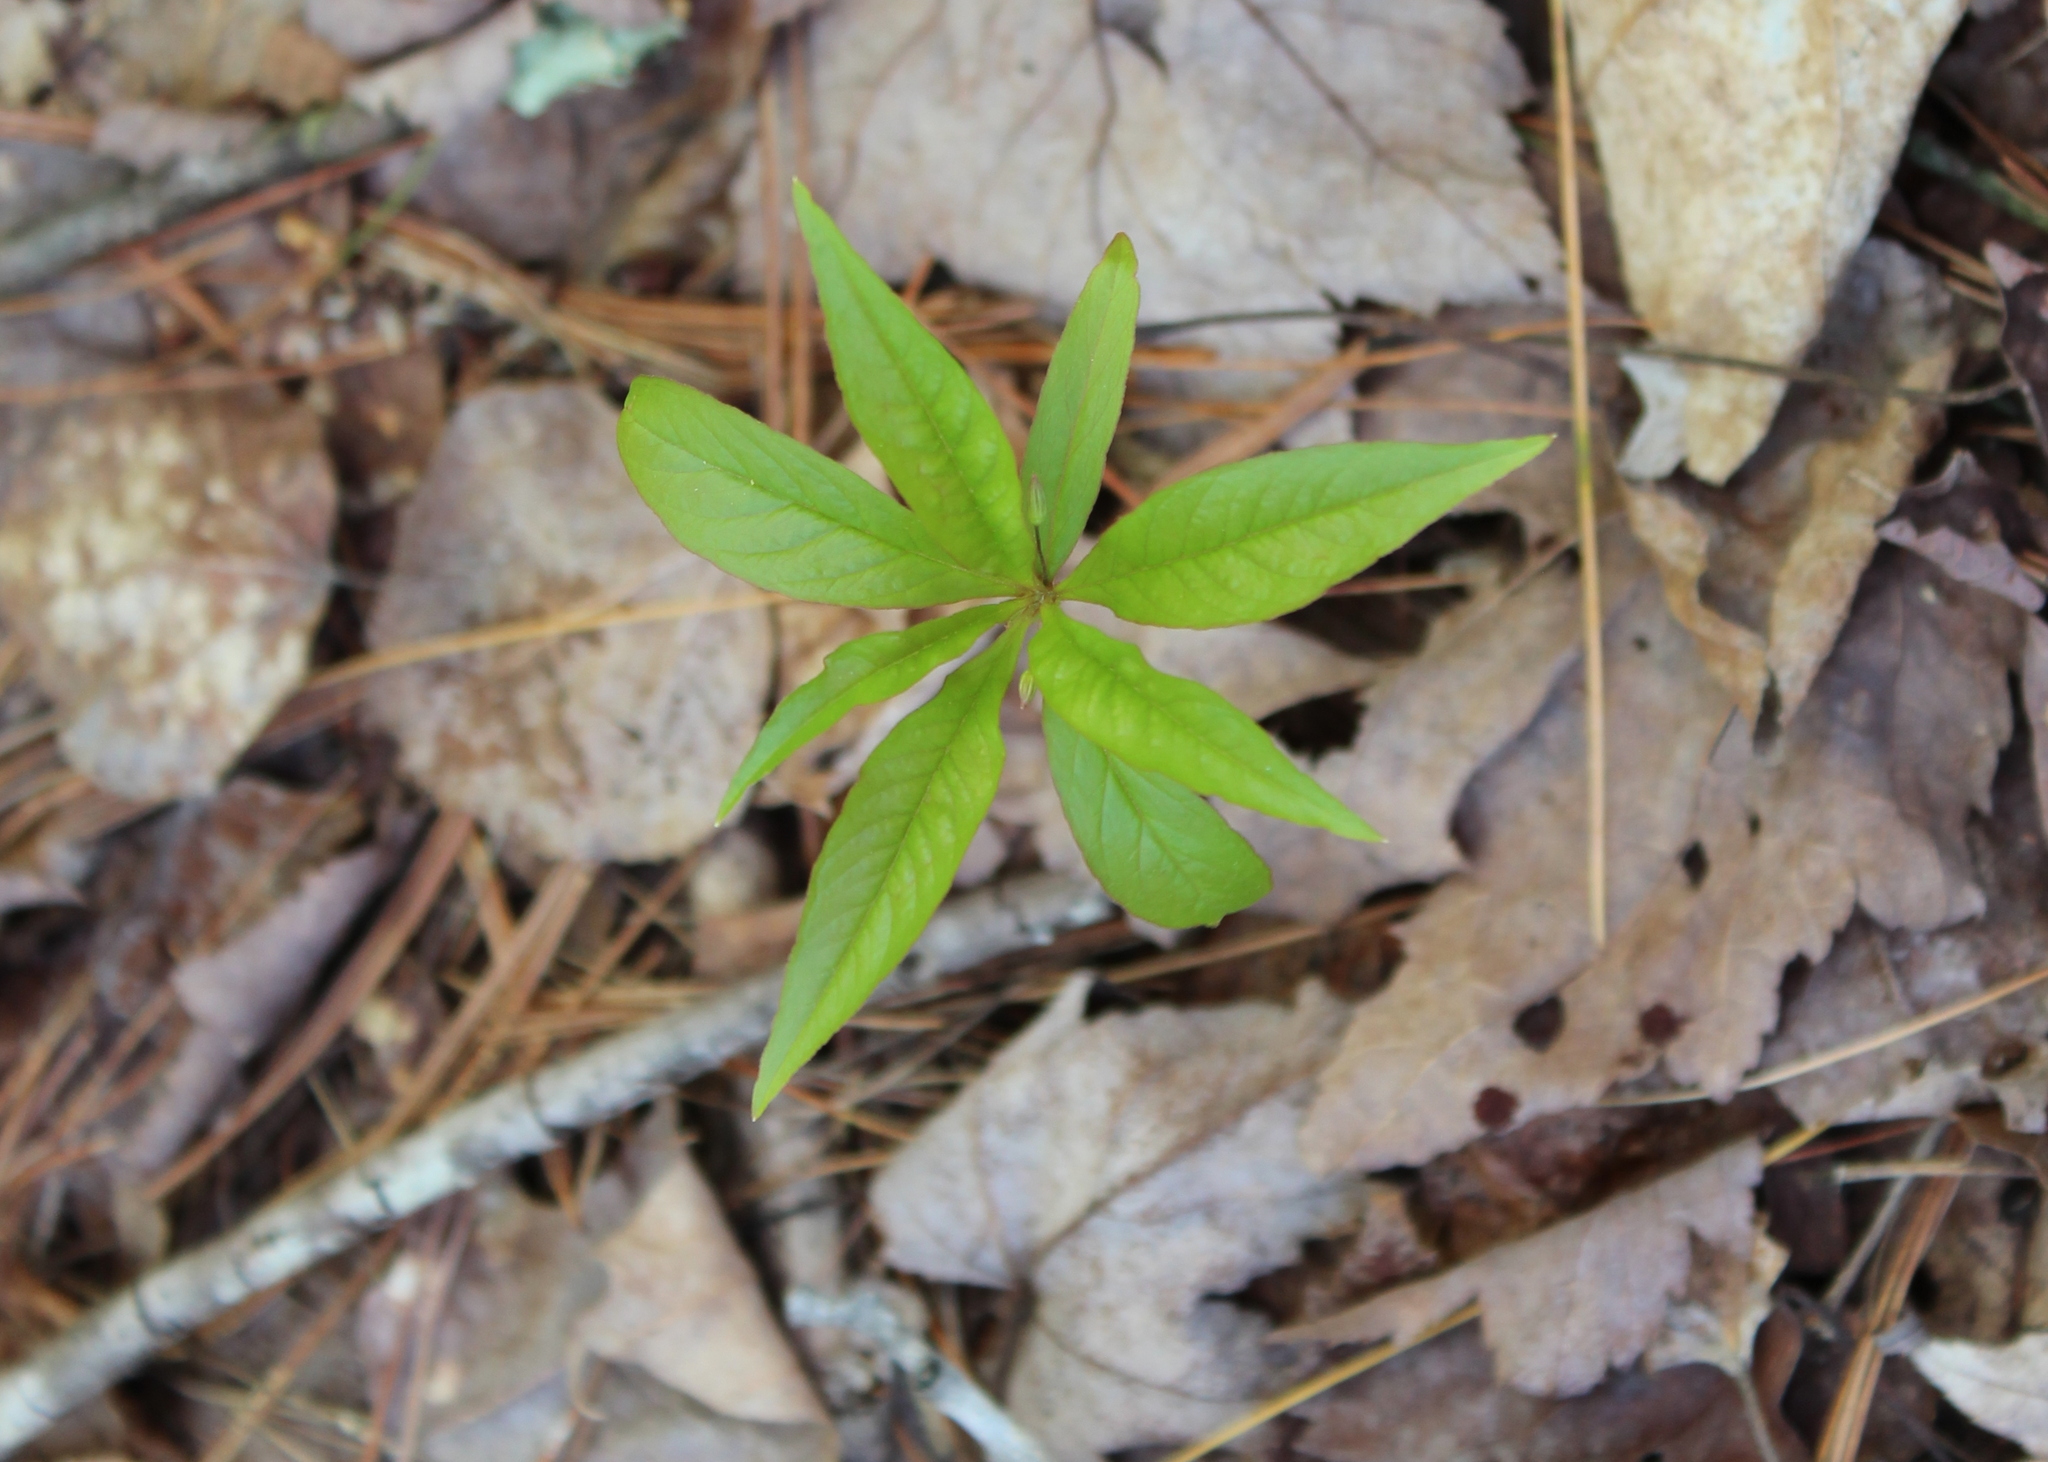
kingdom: Plantae
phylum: Tracheophyta
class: Magnoliopsida
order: Ericales
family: Primulaceae
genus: Lysimachia
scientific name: Lysimachia borealis
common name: American starflower
